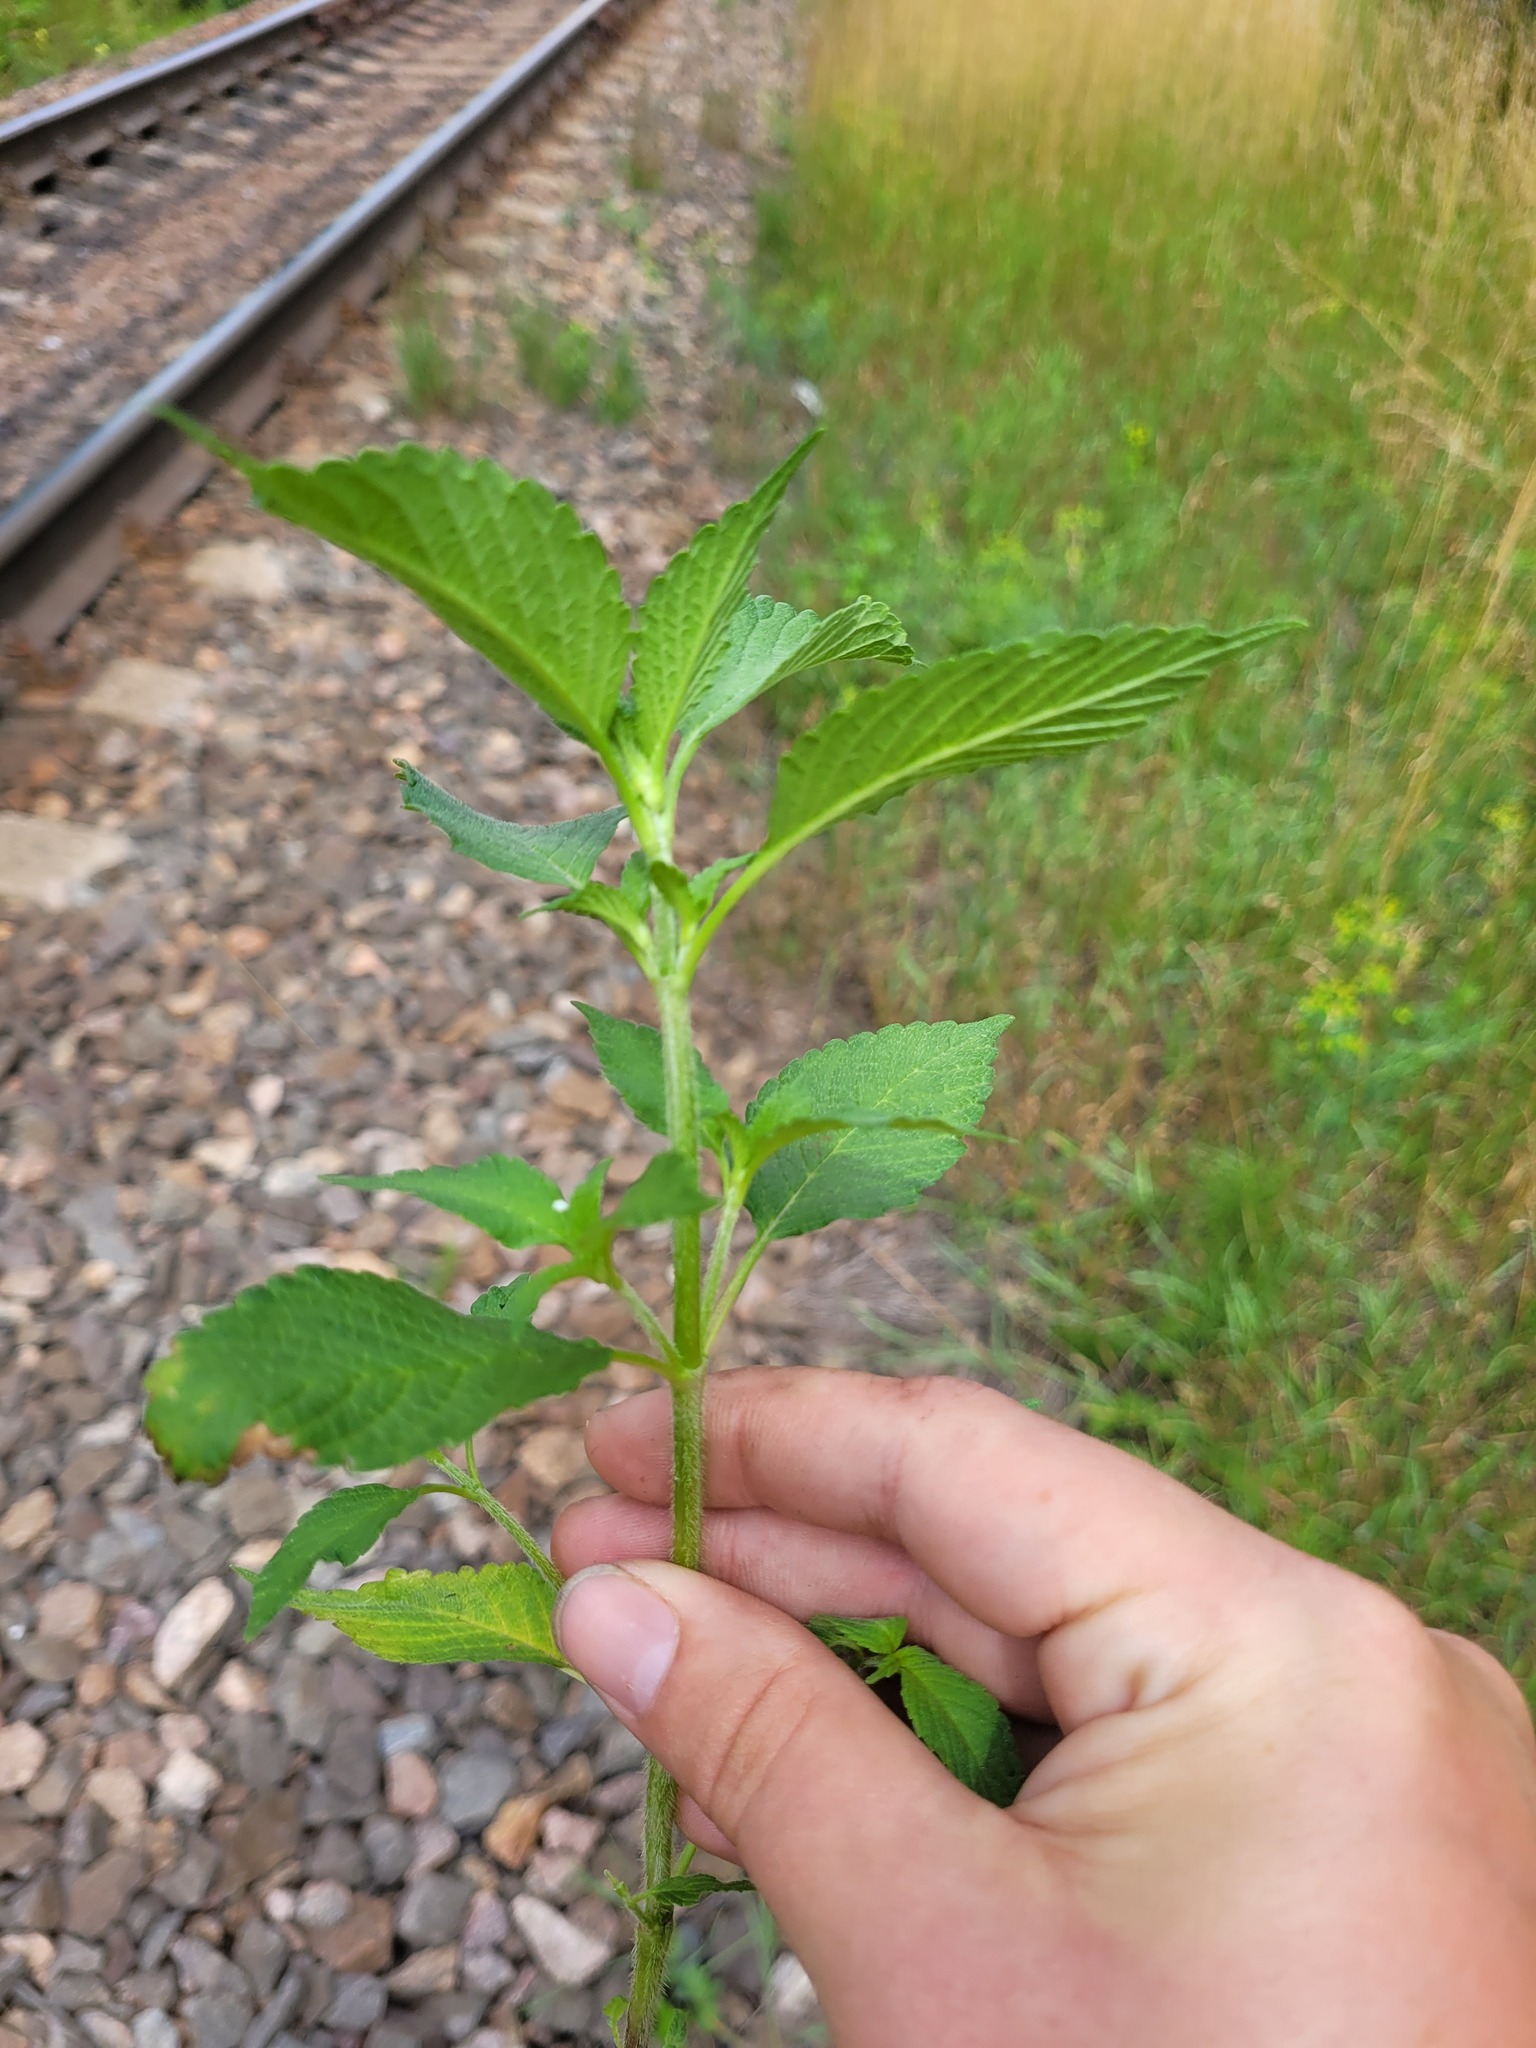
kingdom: Plantae
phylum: Tracheophyta
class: Magnoliopsida
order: Lamiales
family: Lamiaceae
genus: Galeopsis
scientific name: Galeopsis
